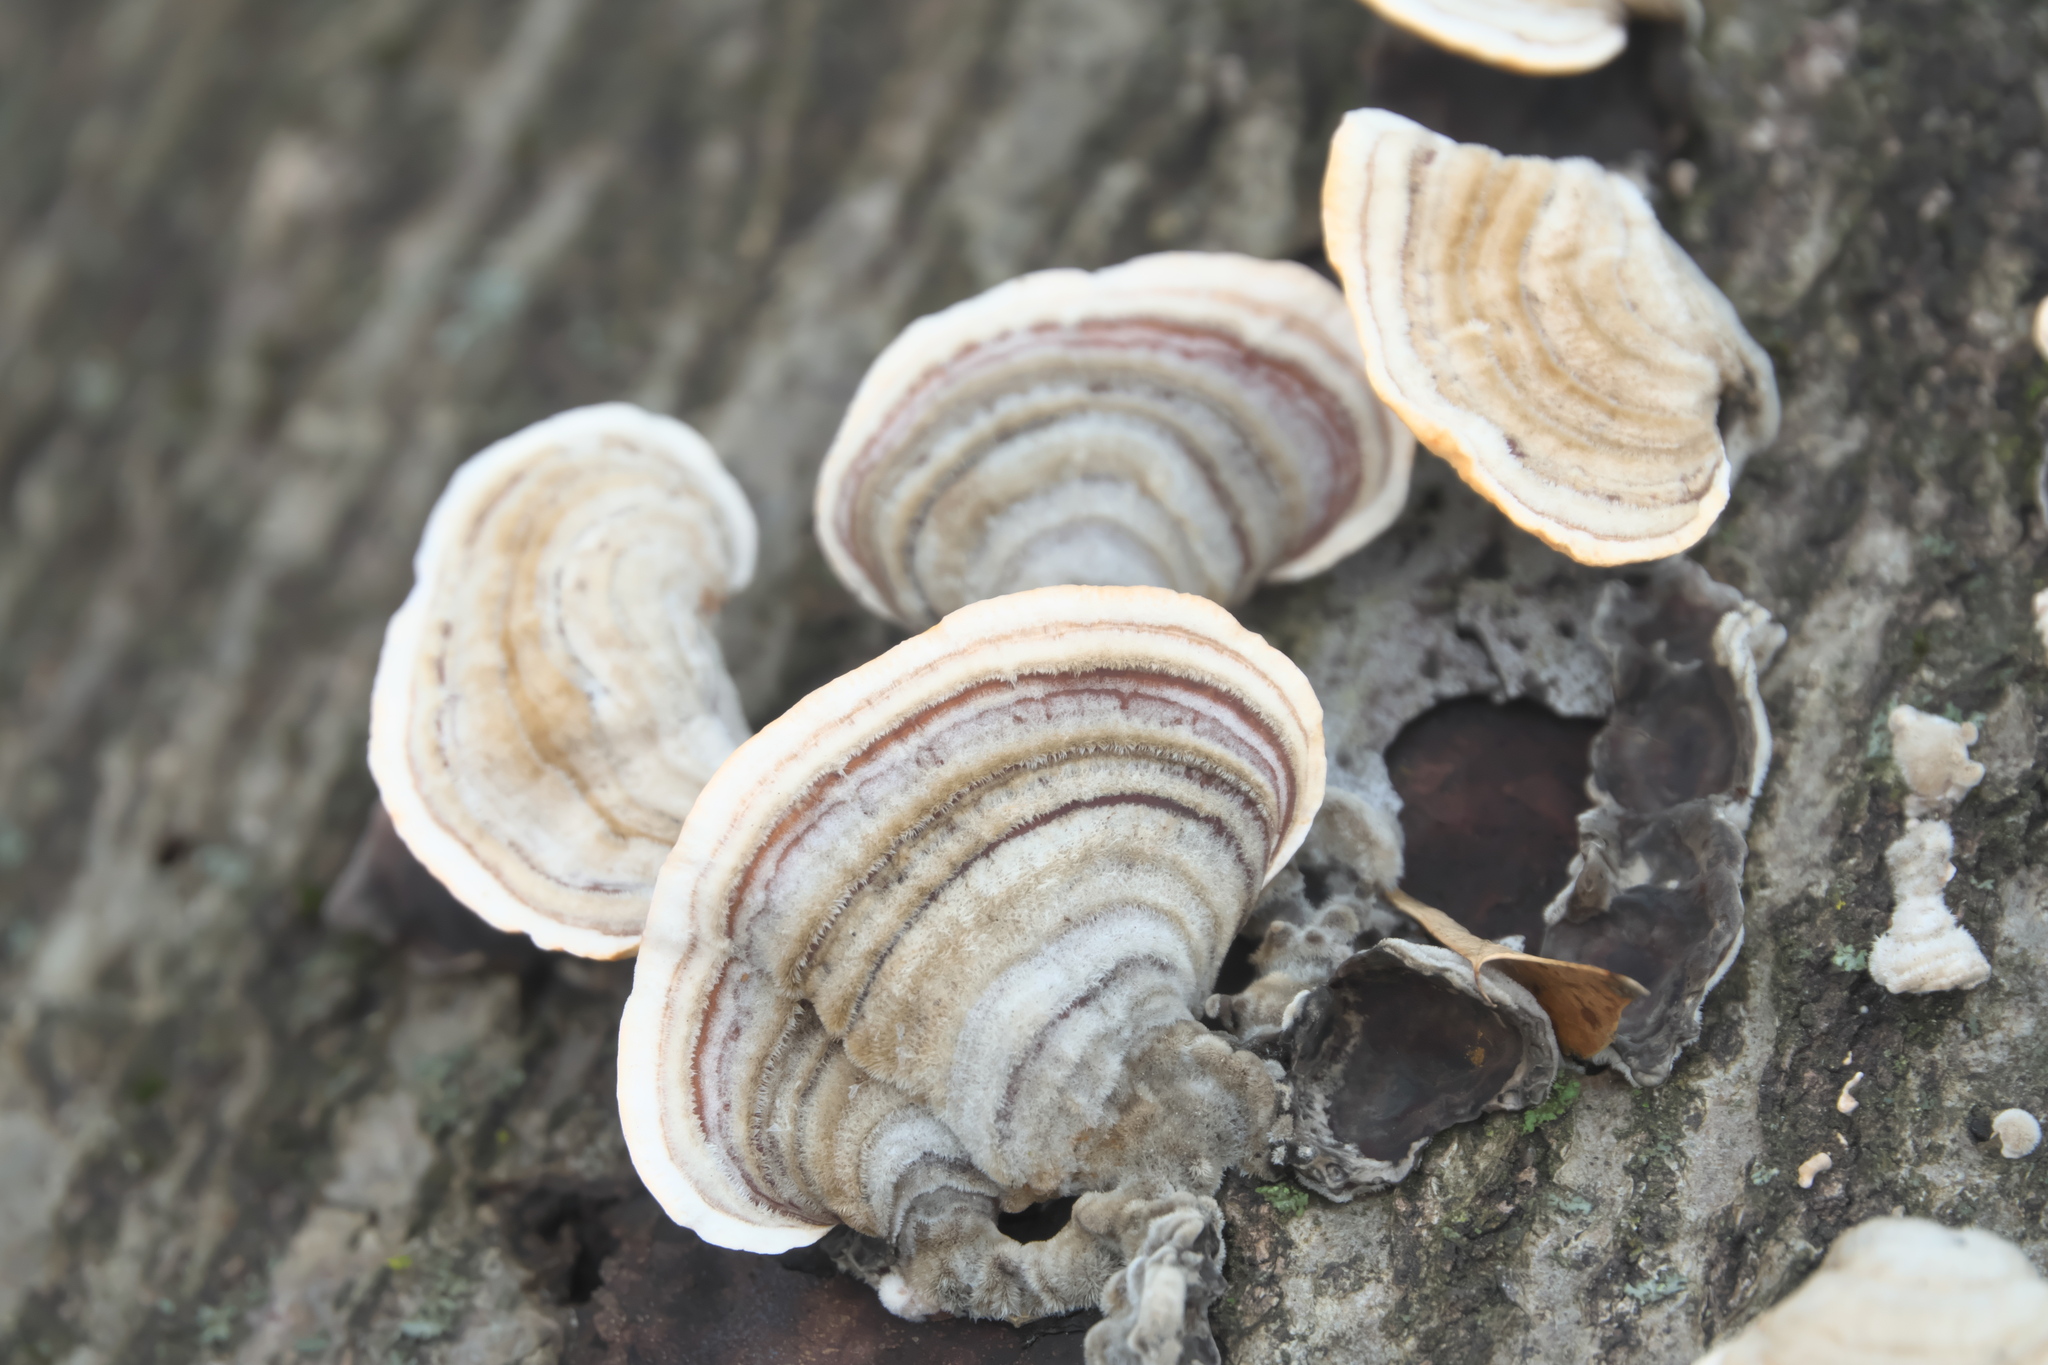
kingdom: Fungi
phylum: Basidiomycota
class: Agaricomycetes
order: Russulales
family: Stereaceae
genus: Stereum
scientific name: Stereum ostrea
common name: False turkeytail
